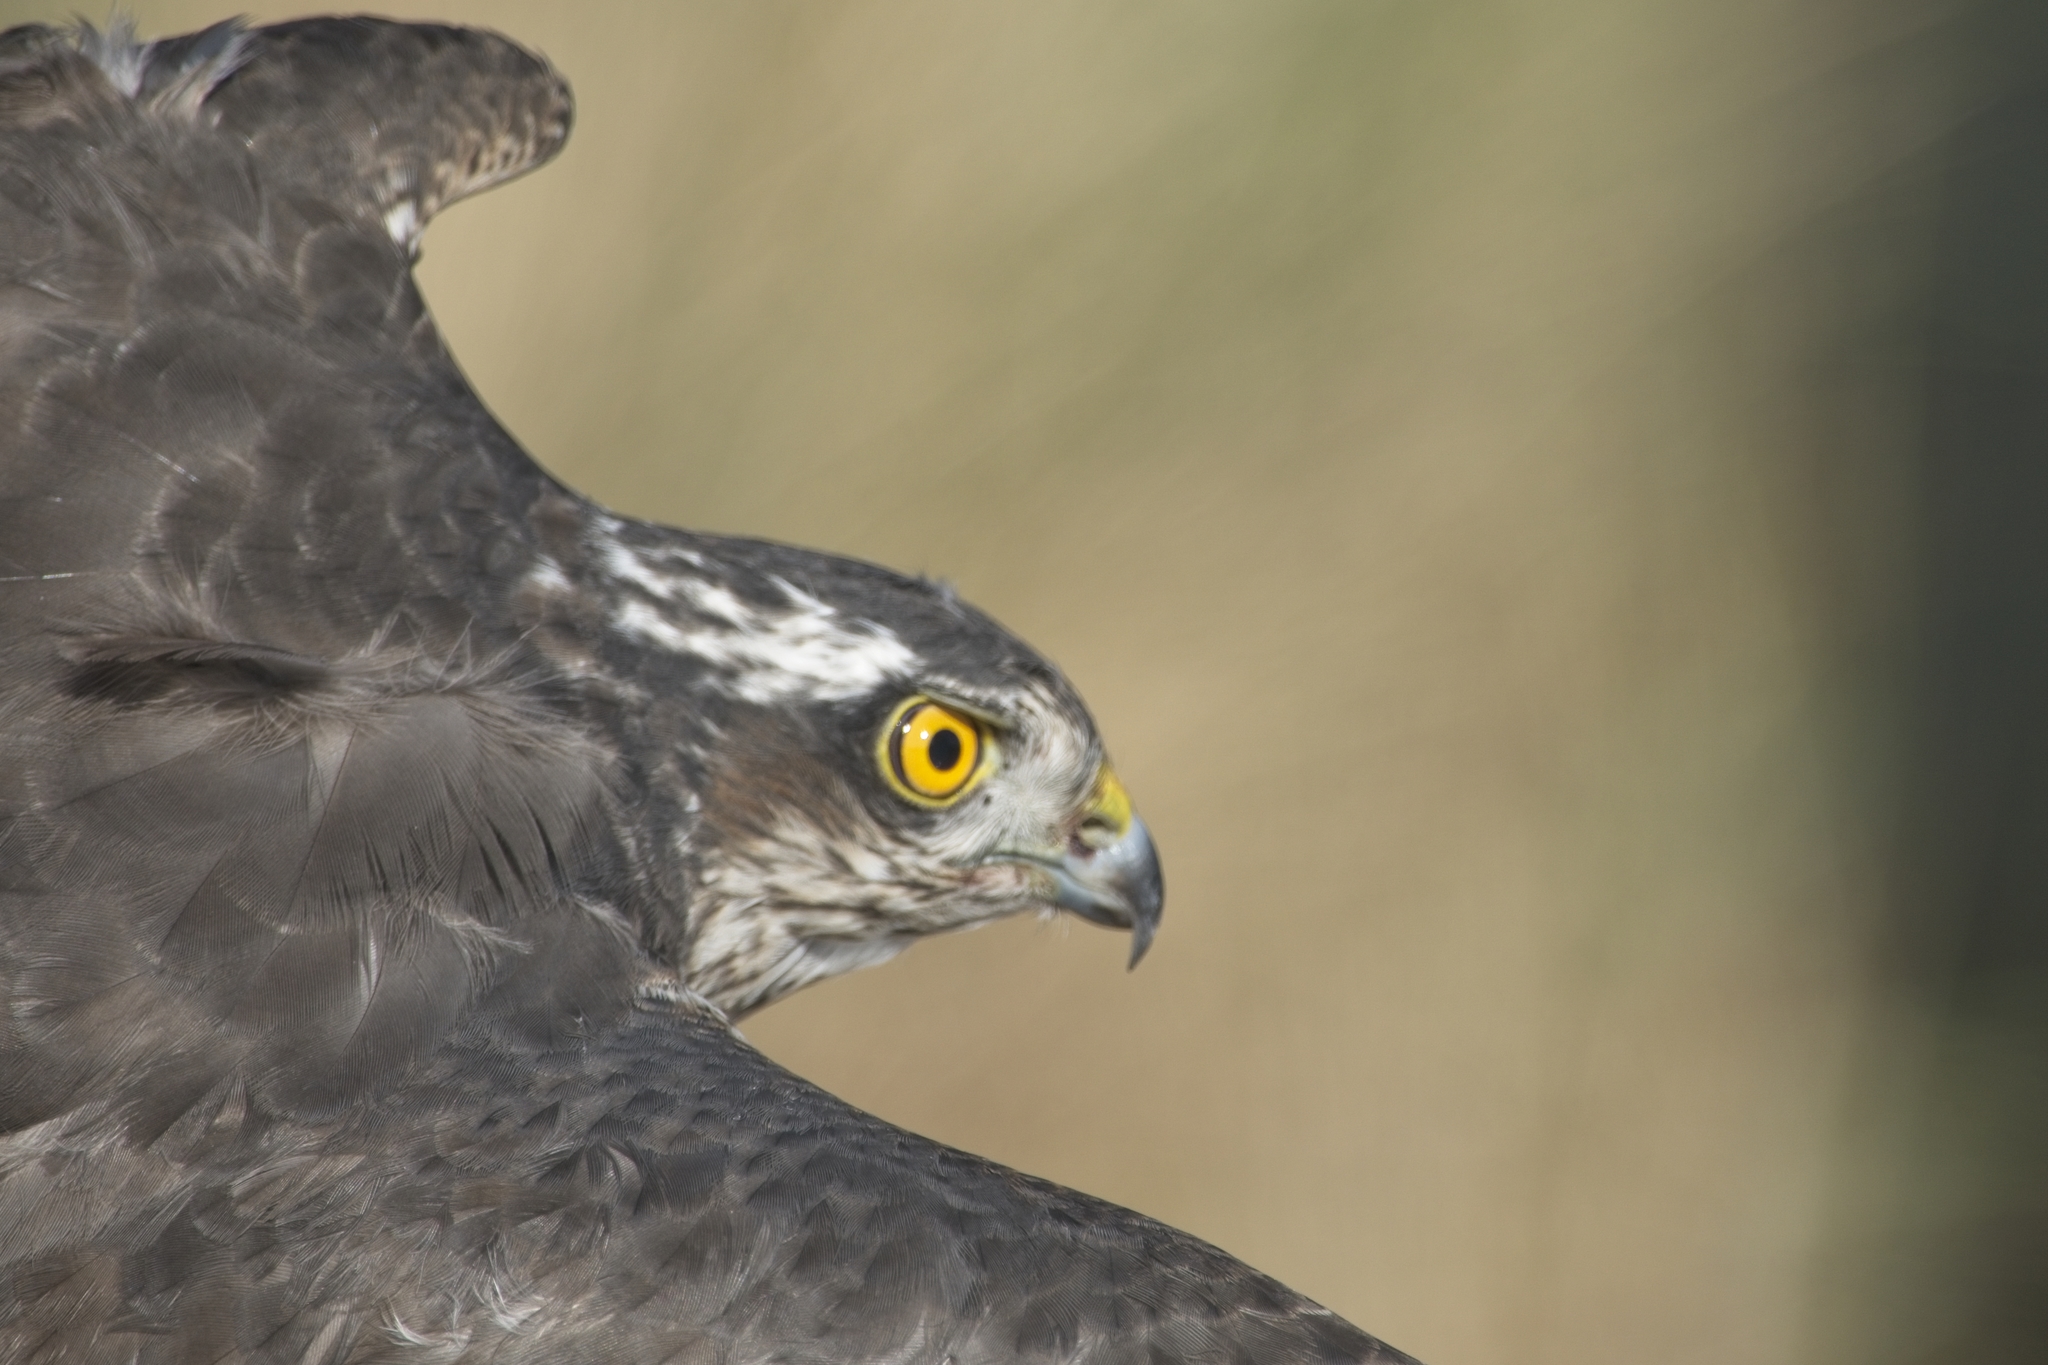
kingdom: Animalia
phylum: Chordata
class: Aves
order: Accipitriformes
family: Accipitridae
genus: Accipiter
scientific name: Accipiter nisus
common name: Eurasian sparrowhawk
